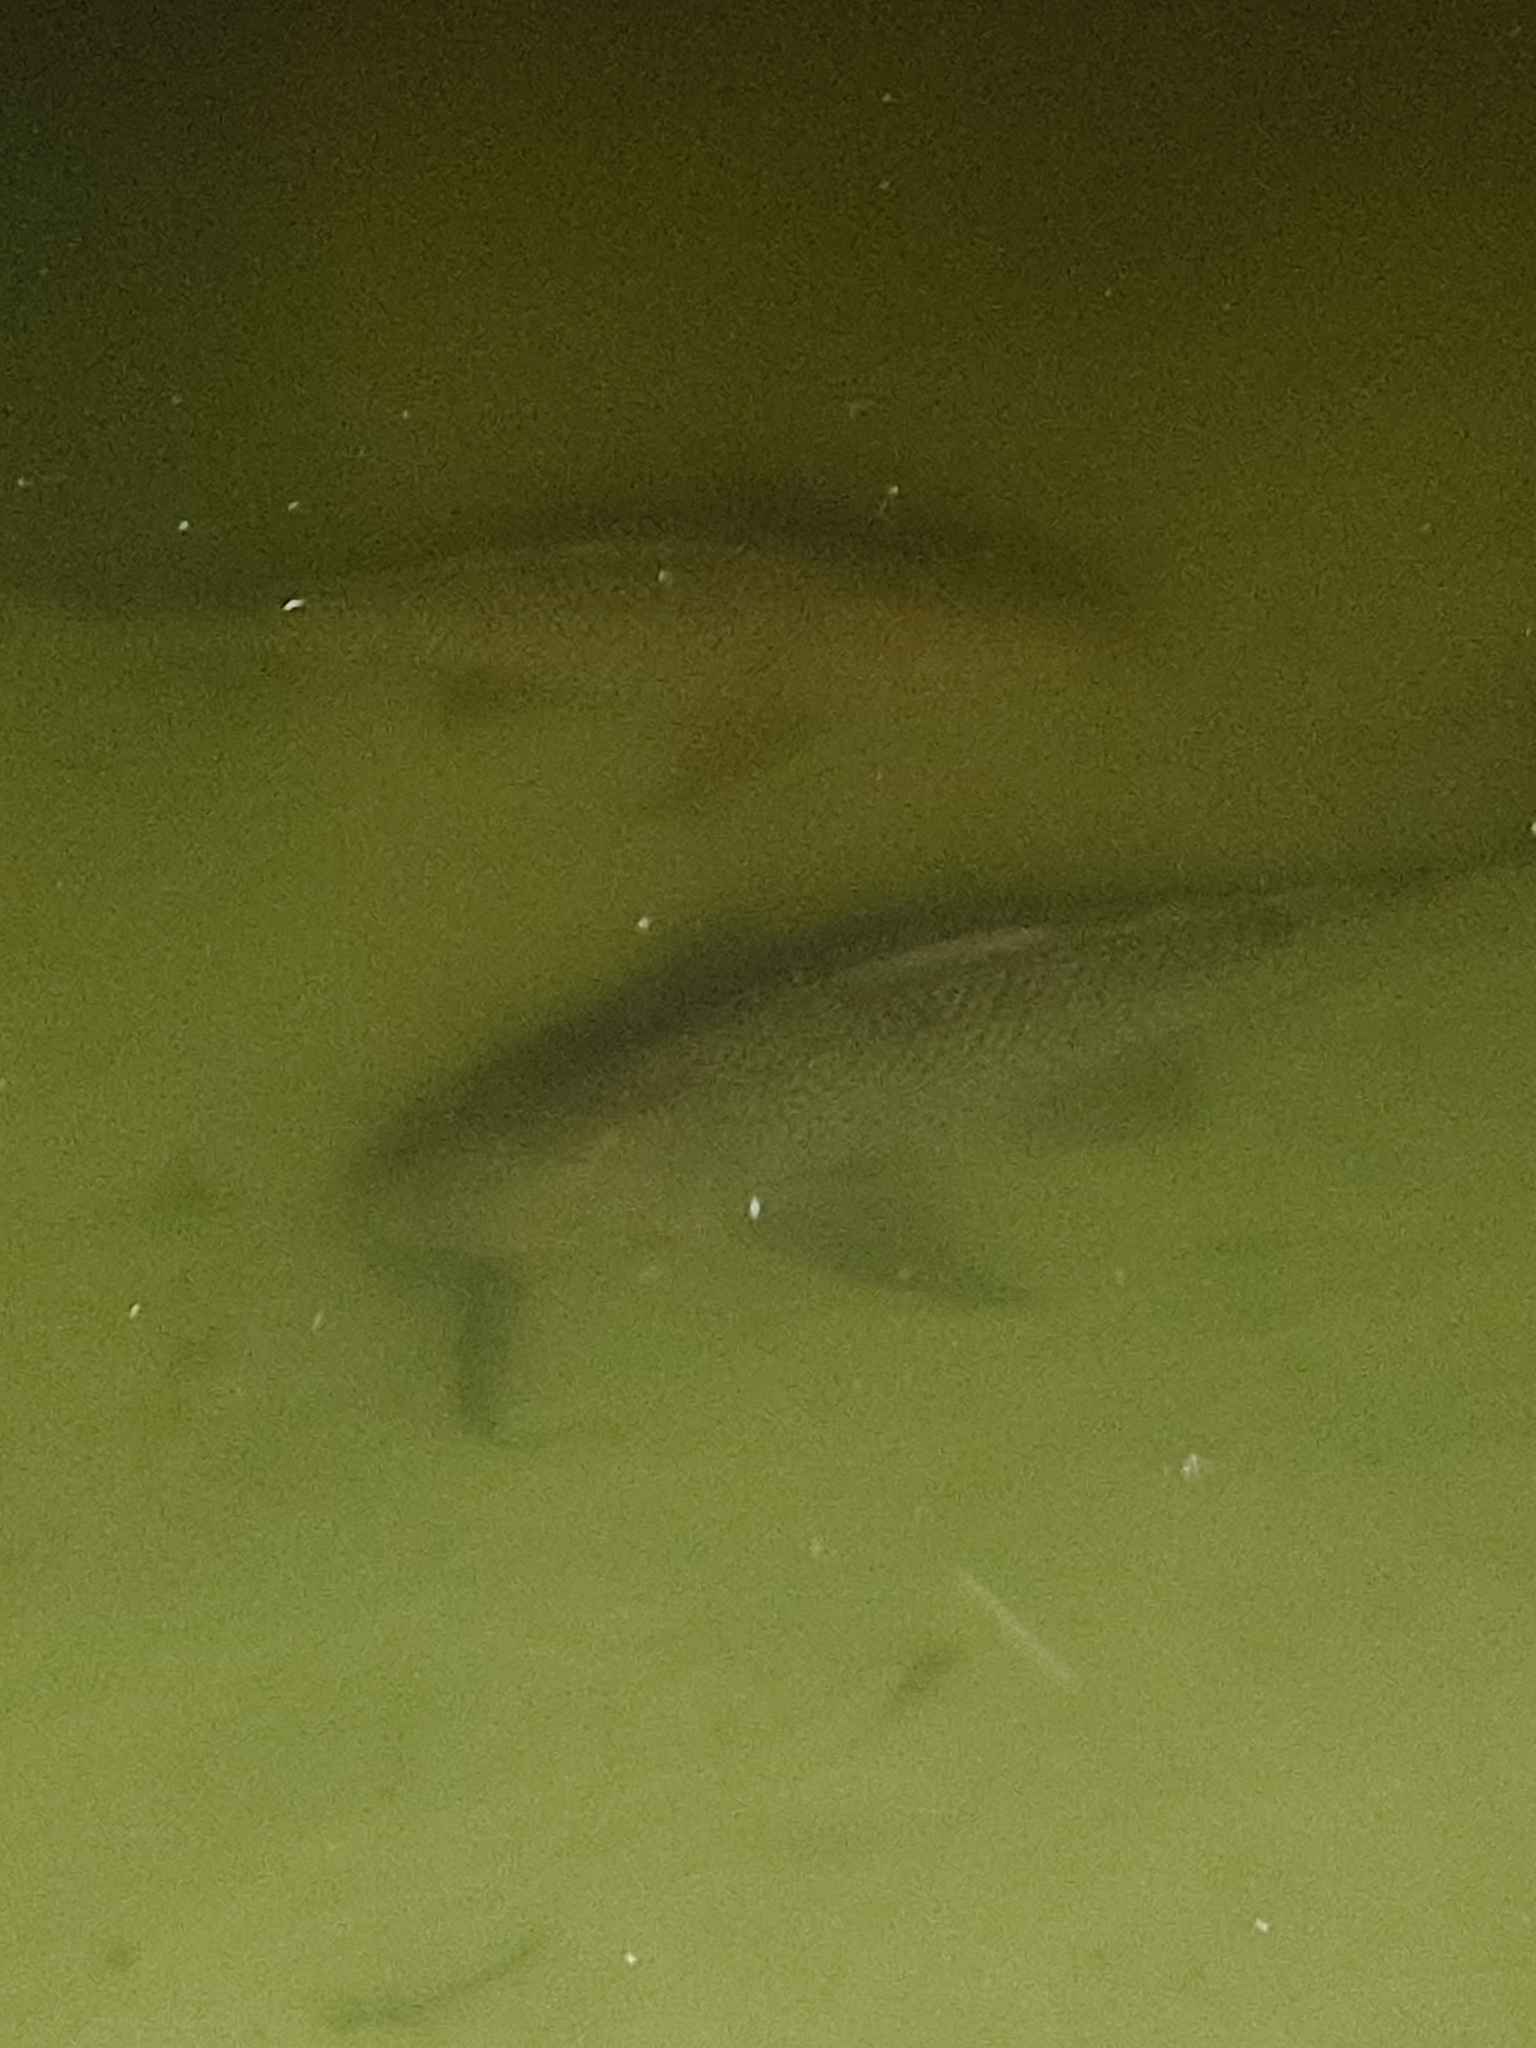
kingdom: Animalia
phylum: Chordata
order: Siluriformes
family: Loricariidae
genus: Pterygoplichthys
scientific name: Pterygoplichthys
